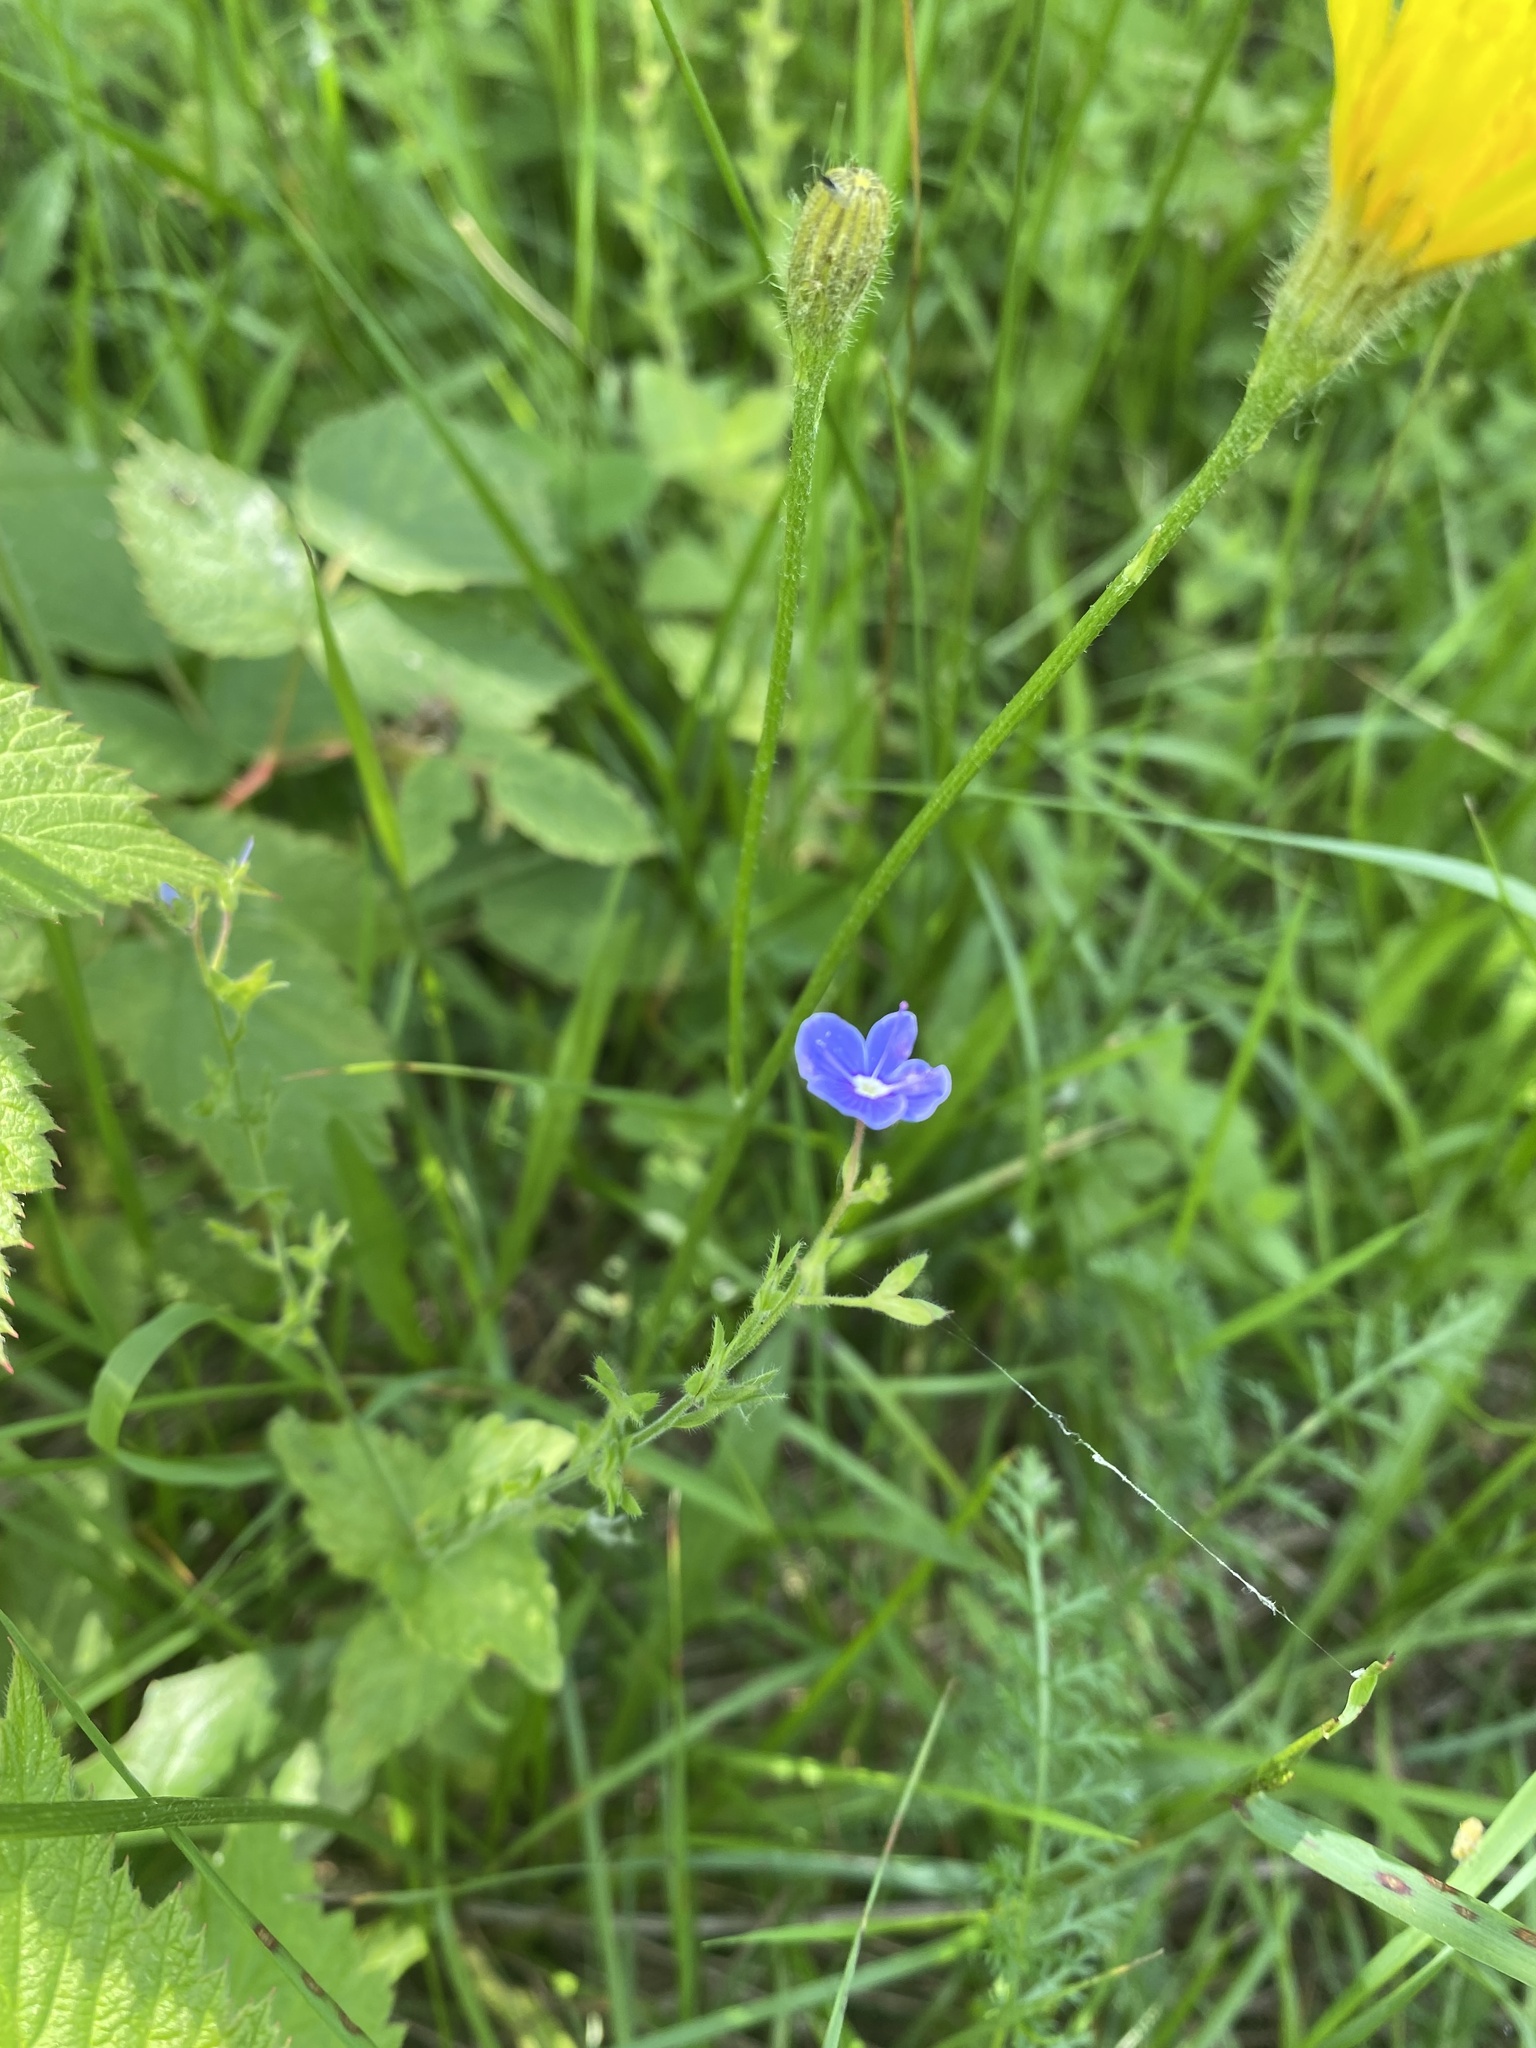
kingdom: Plantae
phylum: Tracheophyta
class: Magnoliopsida
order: Lamiales
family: Plantaginaceae
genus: Veronica
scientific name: Veronica chamaedrys
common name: Germander speedwell
